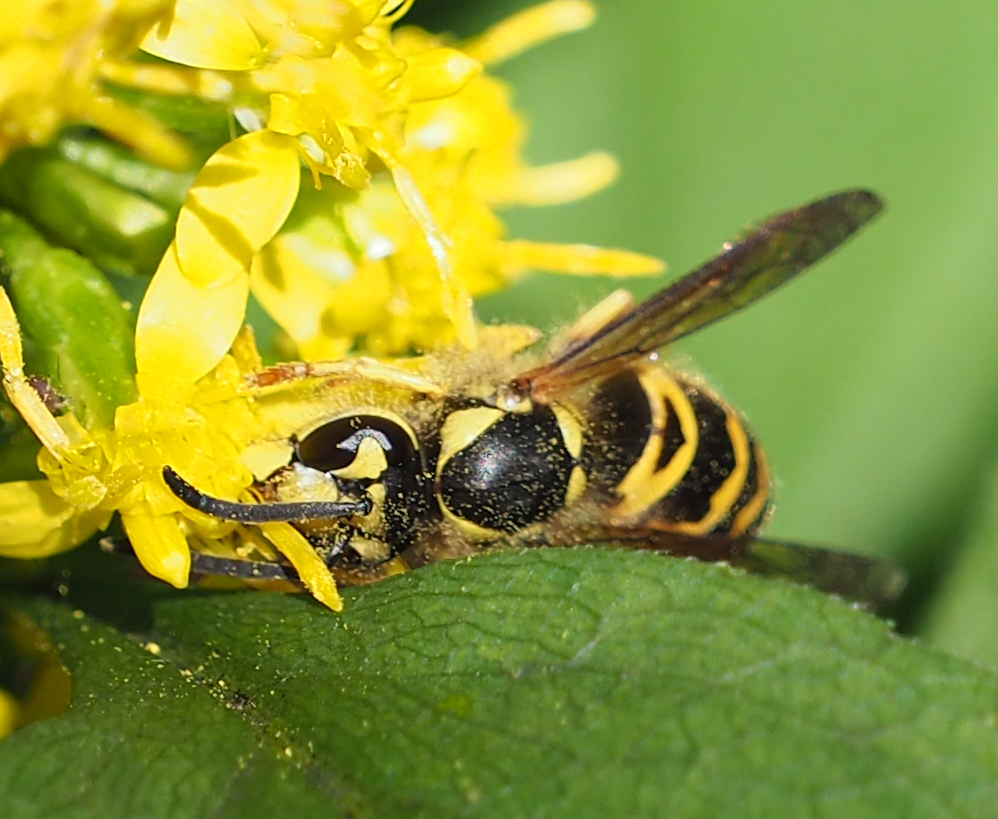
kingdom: Animalia
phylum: Arthropoda
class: Insecta
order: Hymenoptera
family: Vespidae
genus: Vespula
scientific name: Vespula maculifrons
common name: Eastern yellowjacket
